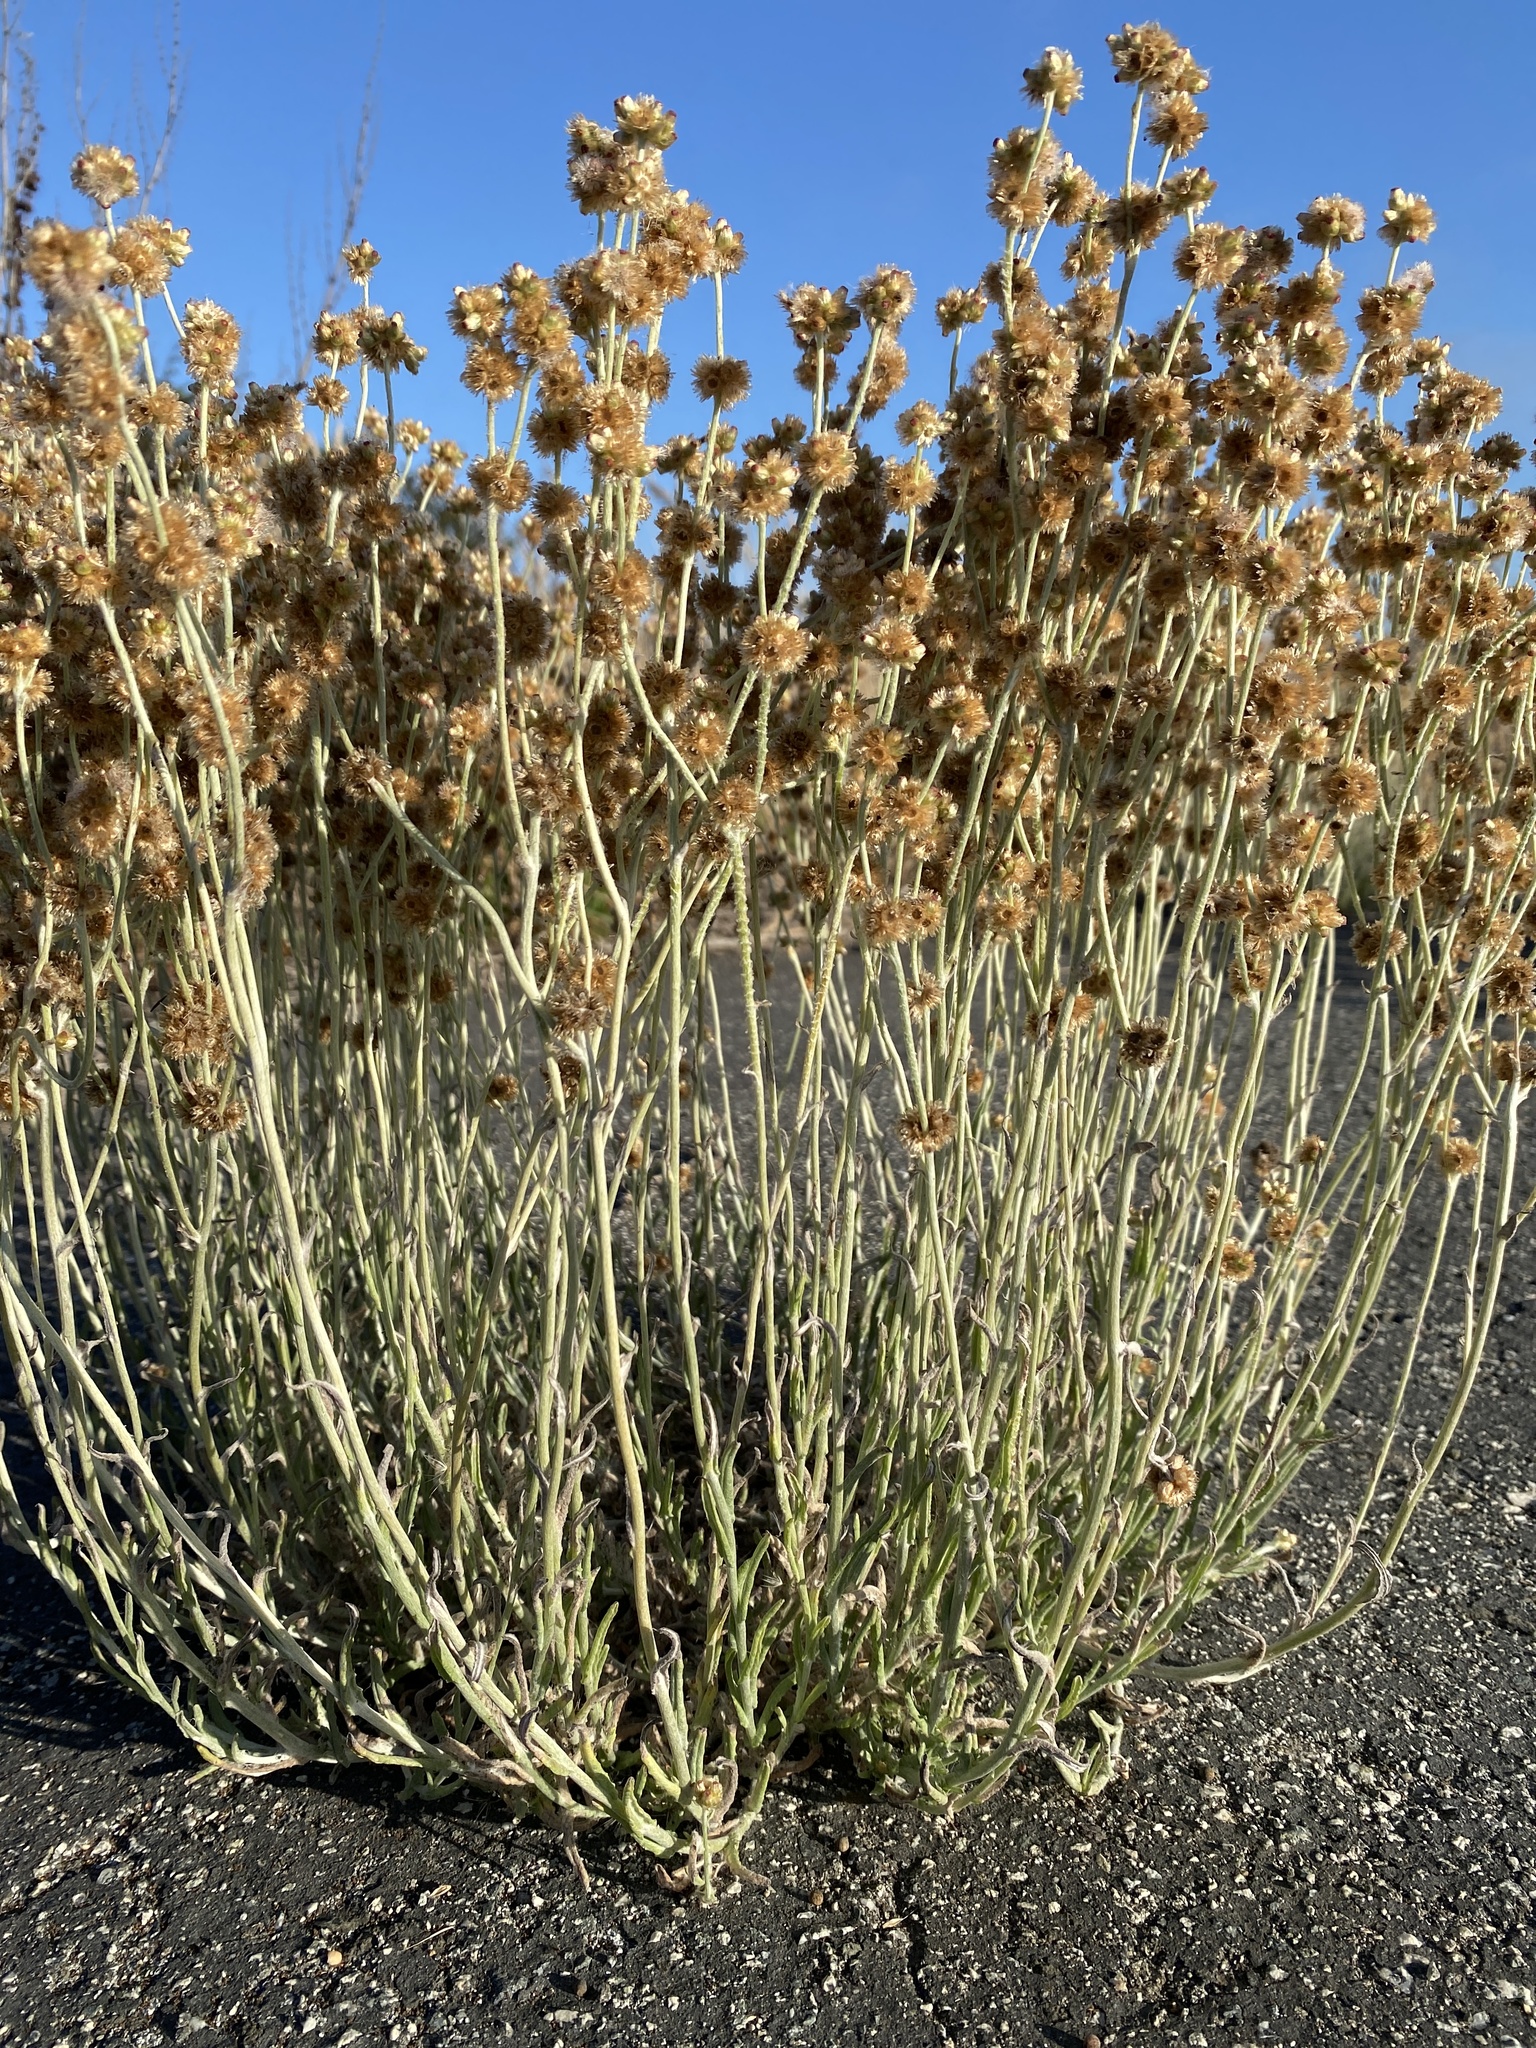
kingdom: Plantae
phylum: Tracheophyta
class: Magnoliopsida
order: Asterales
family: Asteraceae
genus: Helichrysum
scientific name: Helichrysum luteoalbum
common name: Daisy
